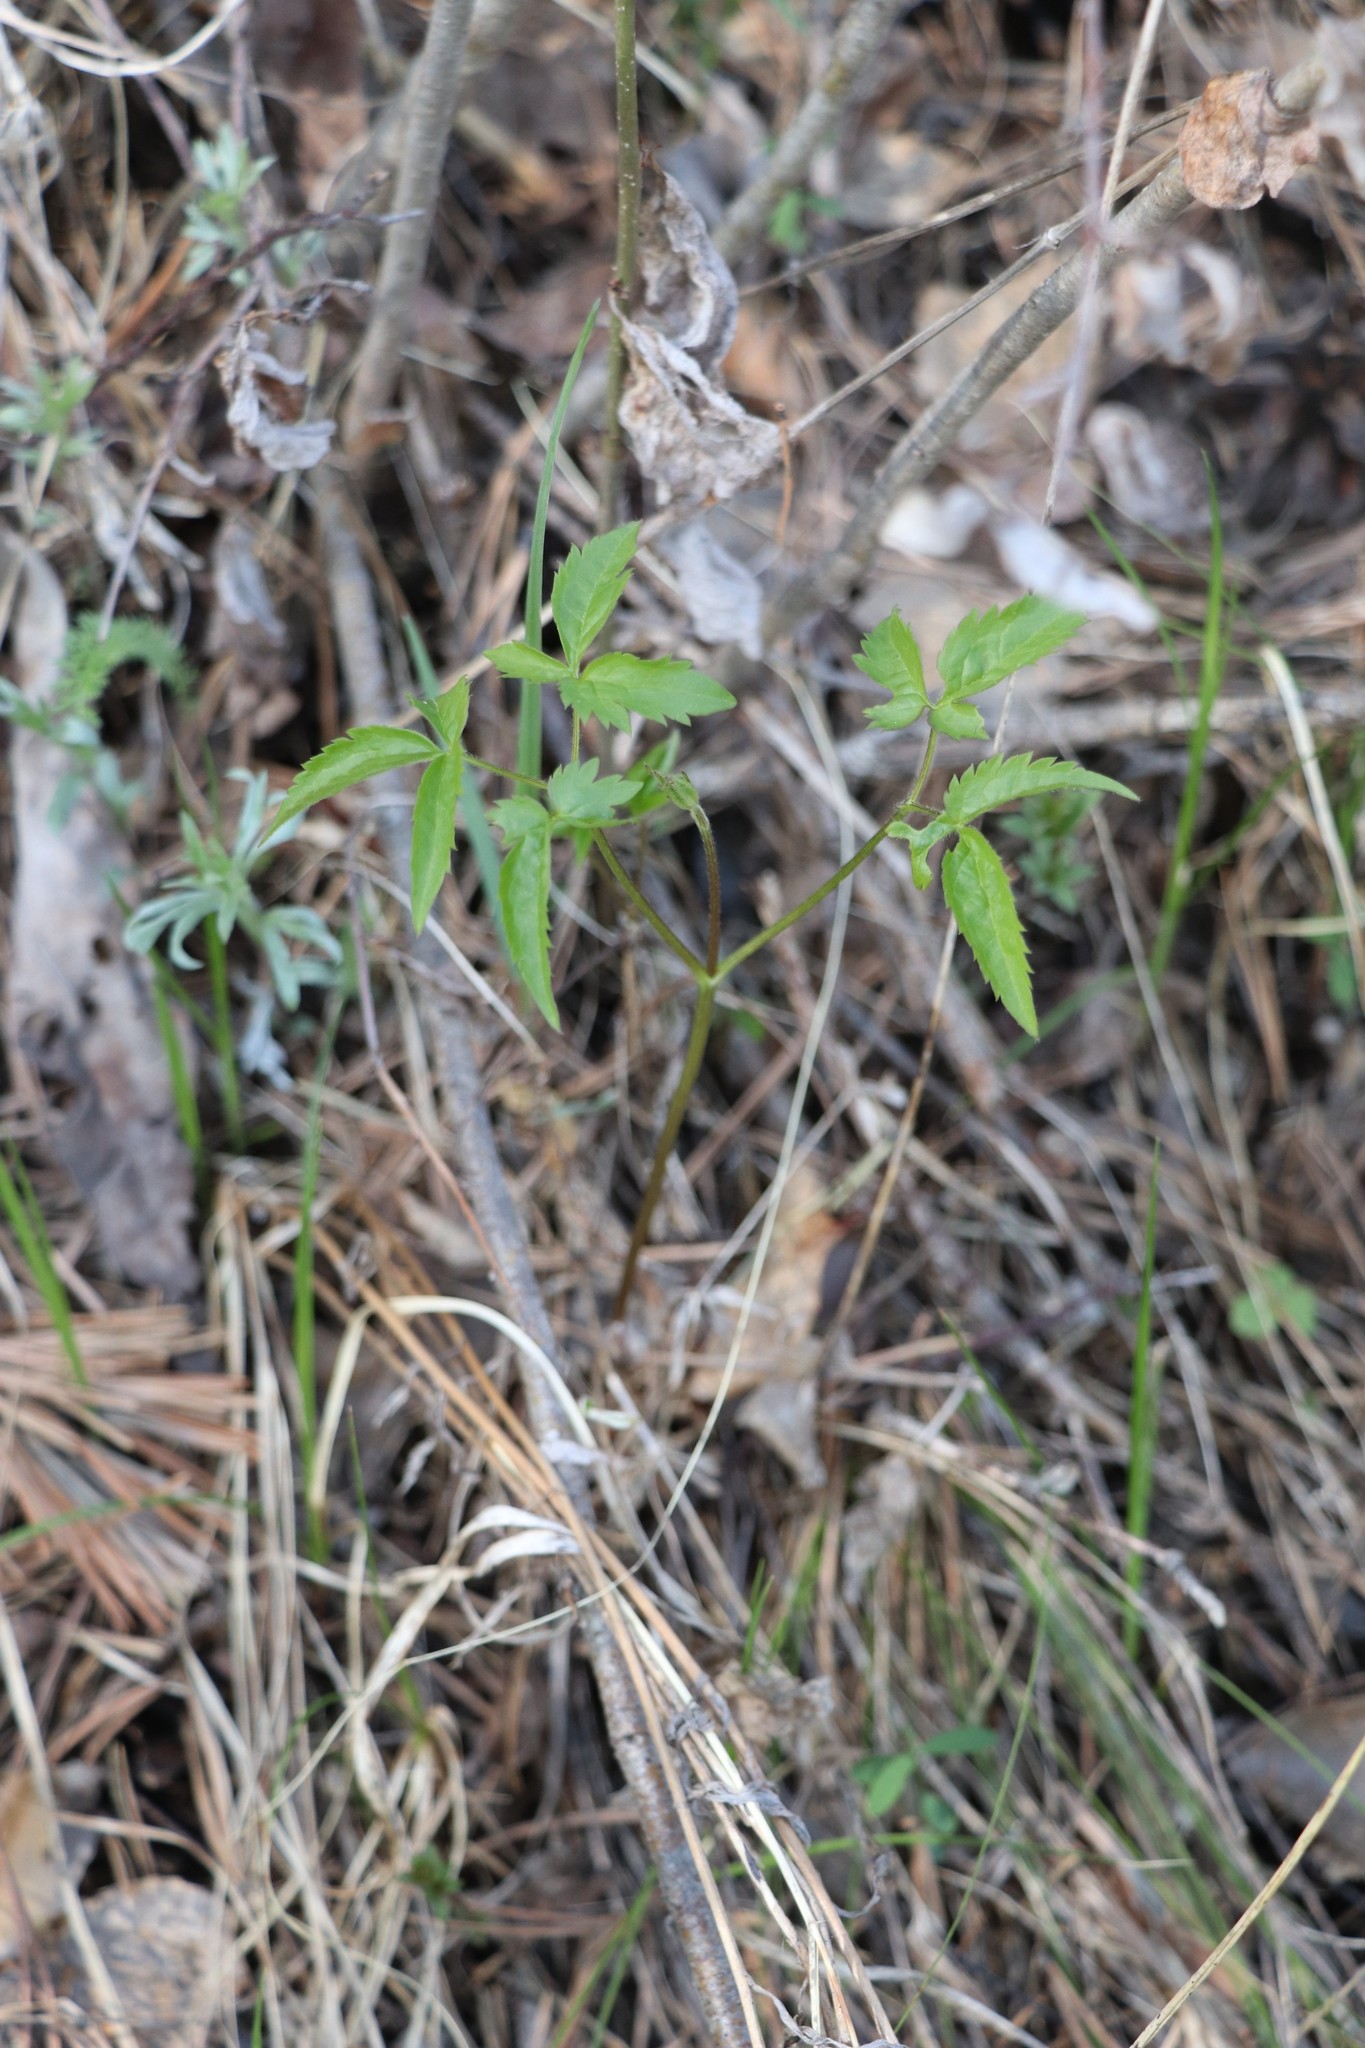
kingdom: Plantae
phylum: Tracheophyta
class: Magnoliopsida
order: Ranunculales
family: Ranunculaceae
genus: Clematis
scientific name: Clematis sibirica
